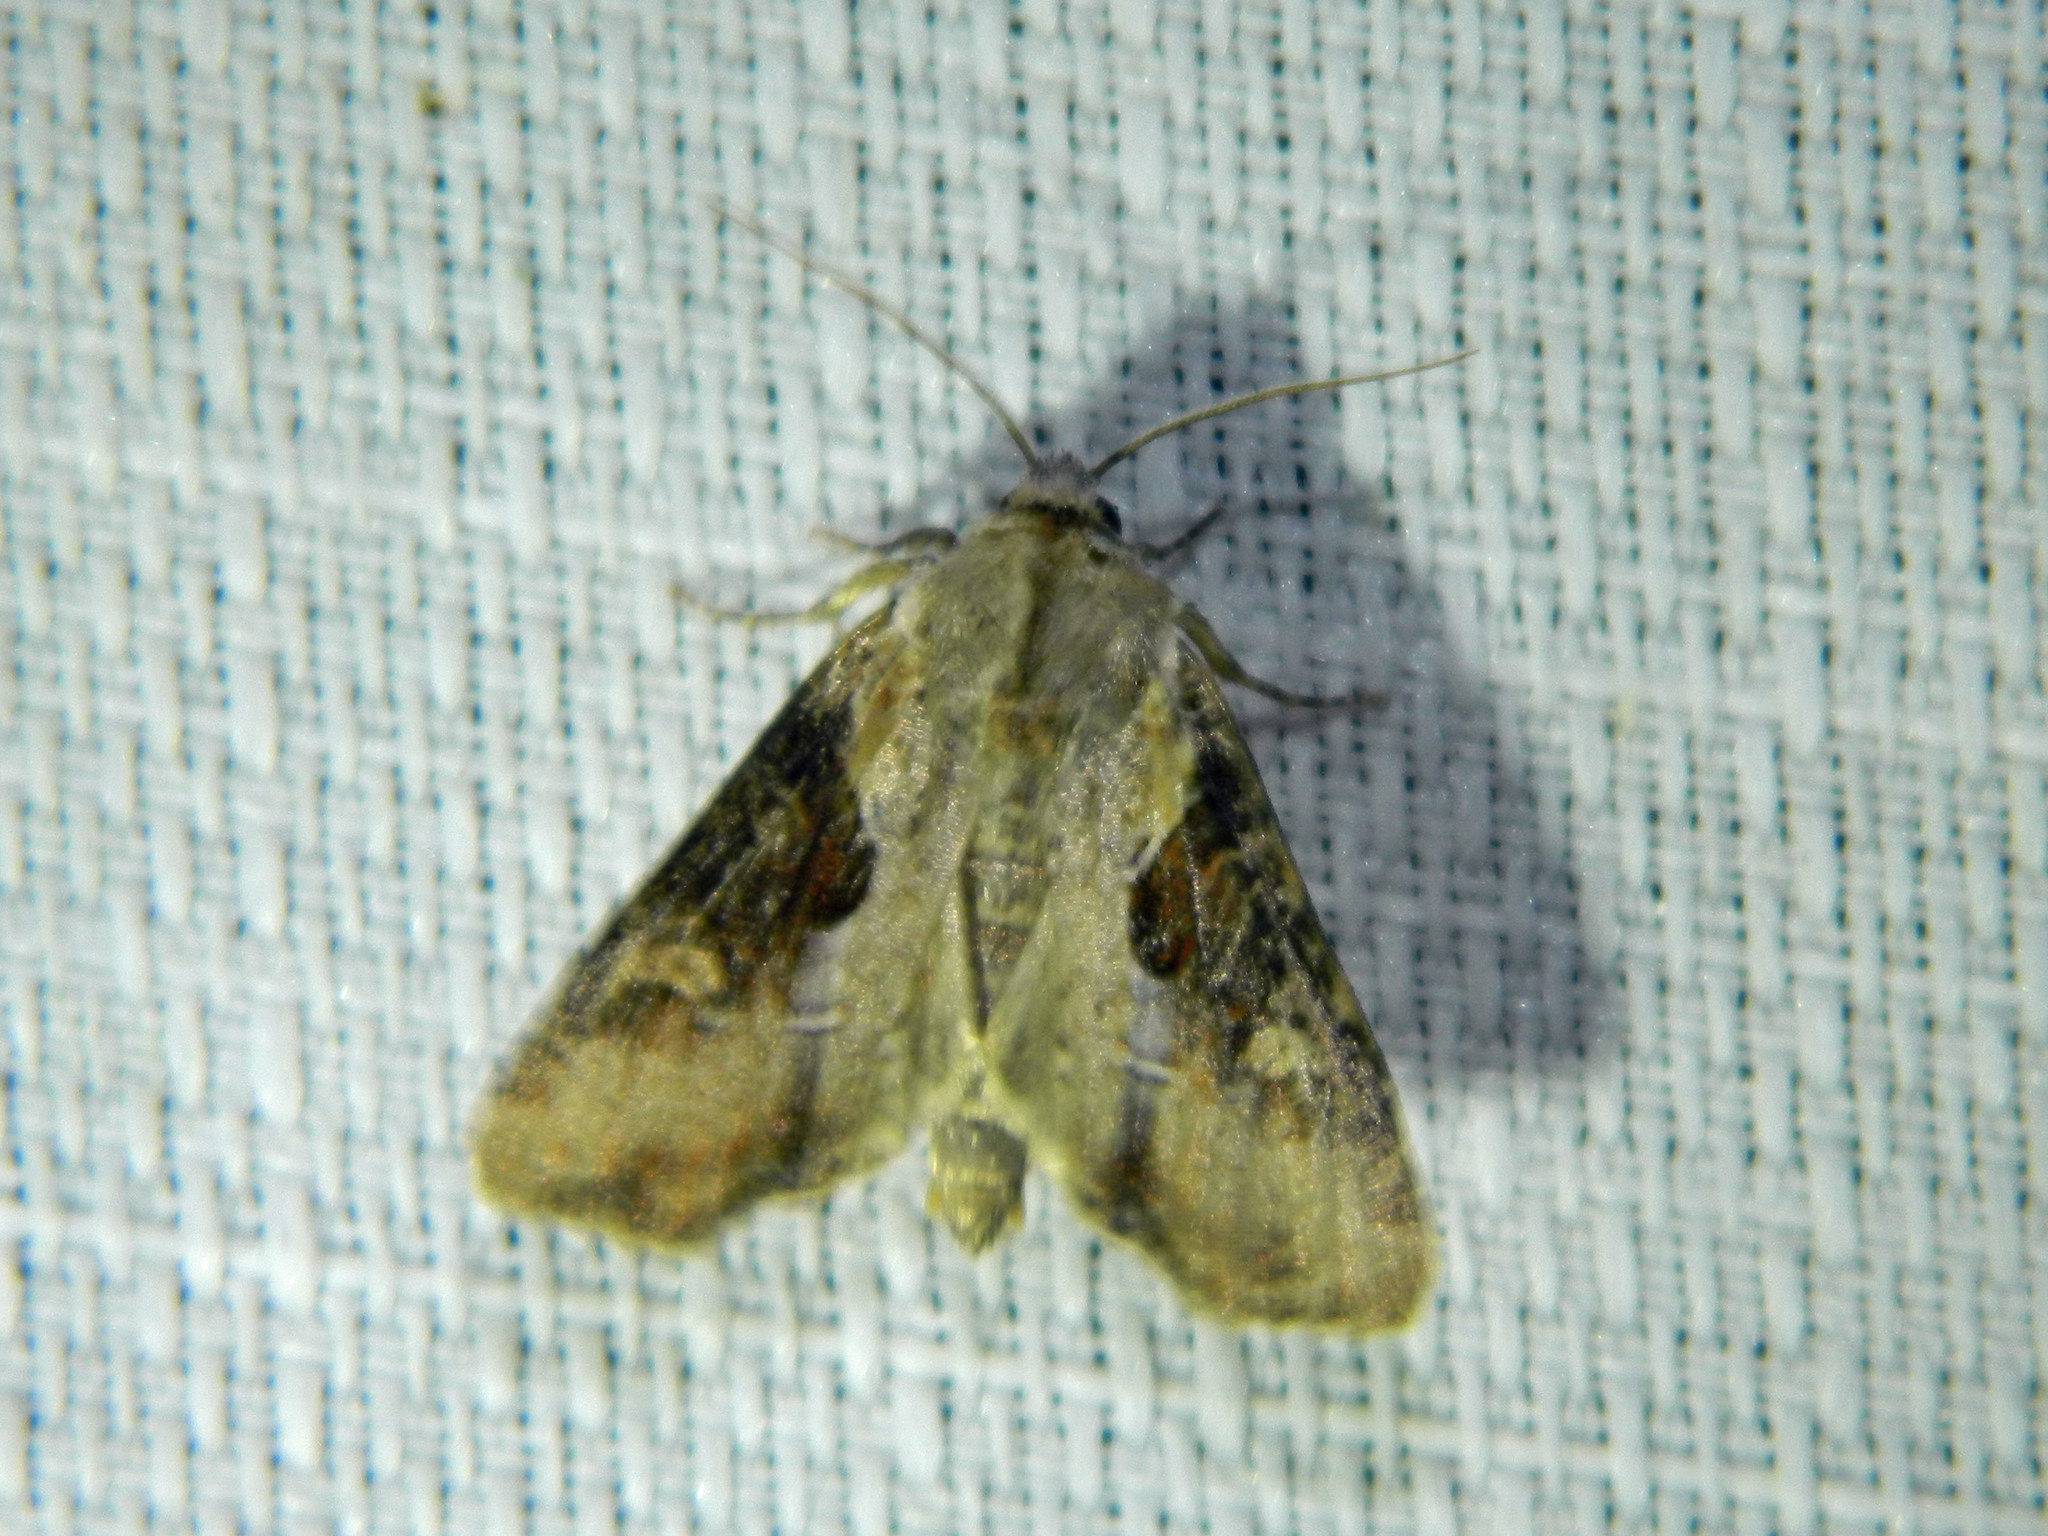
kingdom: Animalia
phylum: Arthropoda
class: Insecta
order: Lepidoptera
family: Noctuidae
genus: Lateroligia
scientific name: Lateroligia ophiogramma
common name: Double lobed
